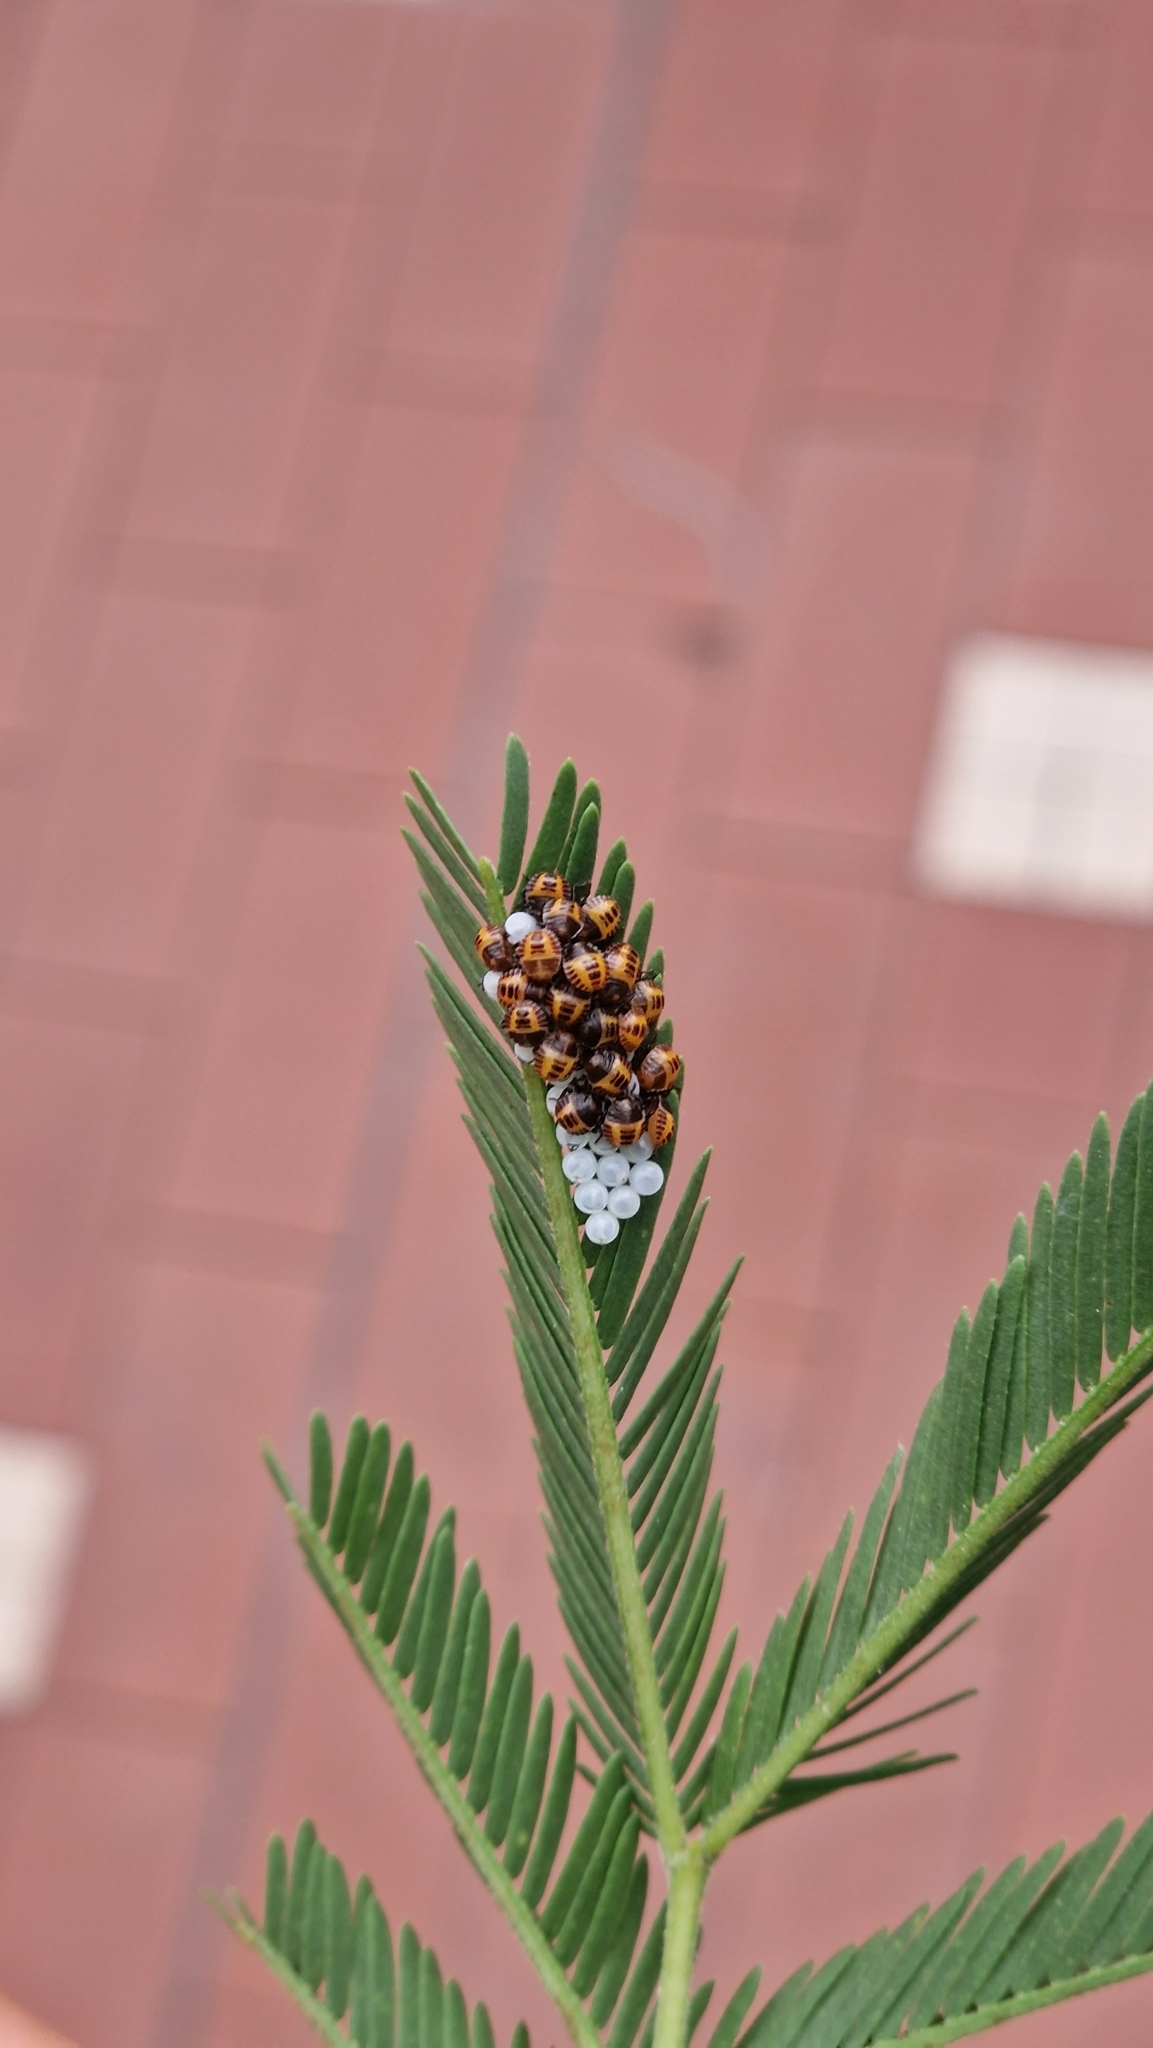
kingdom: Animalia
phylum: Arthropoda
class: Insecta
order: Hemiptera
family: Pentatomidae
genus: Halyomorpha
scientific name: Halyomorpha halys
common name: Brown marmorated stink bug
